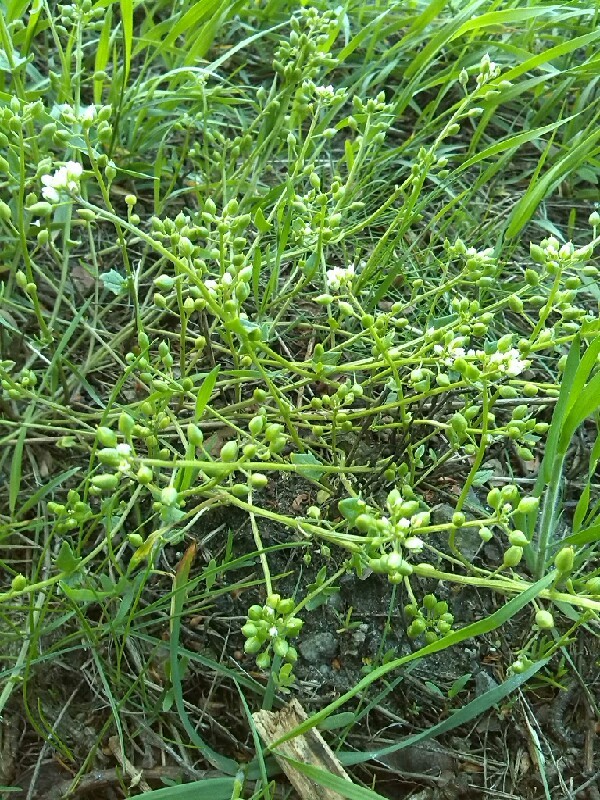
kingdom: Plantae
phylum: Tracheophyta
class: Magnoliopsida
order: Brassicales
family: Brassicaceae
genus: Cochlearia
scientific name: Cochlearia danica
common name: Early scurvygrass
